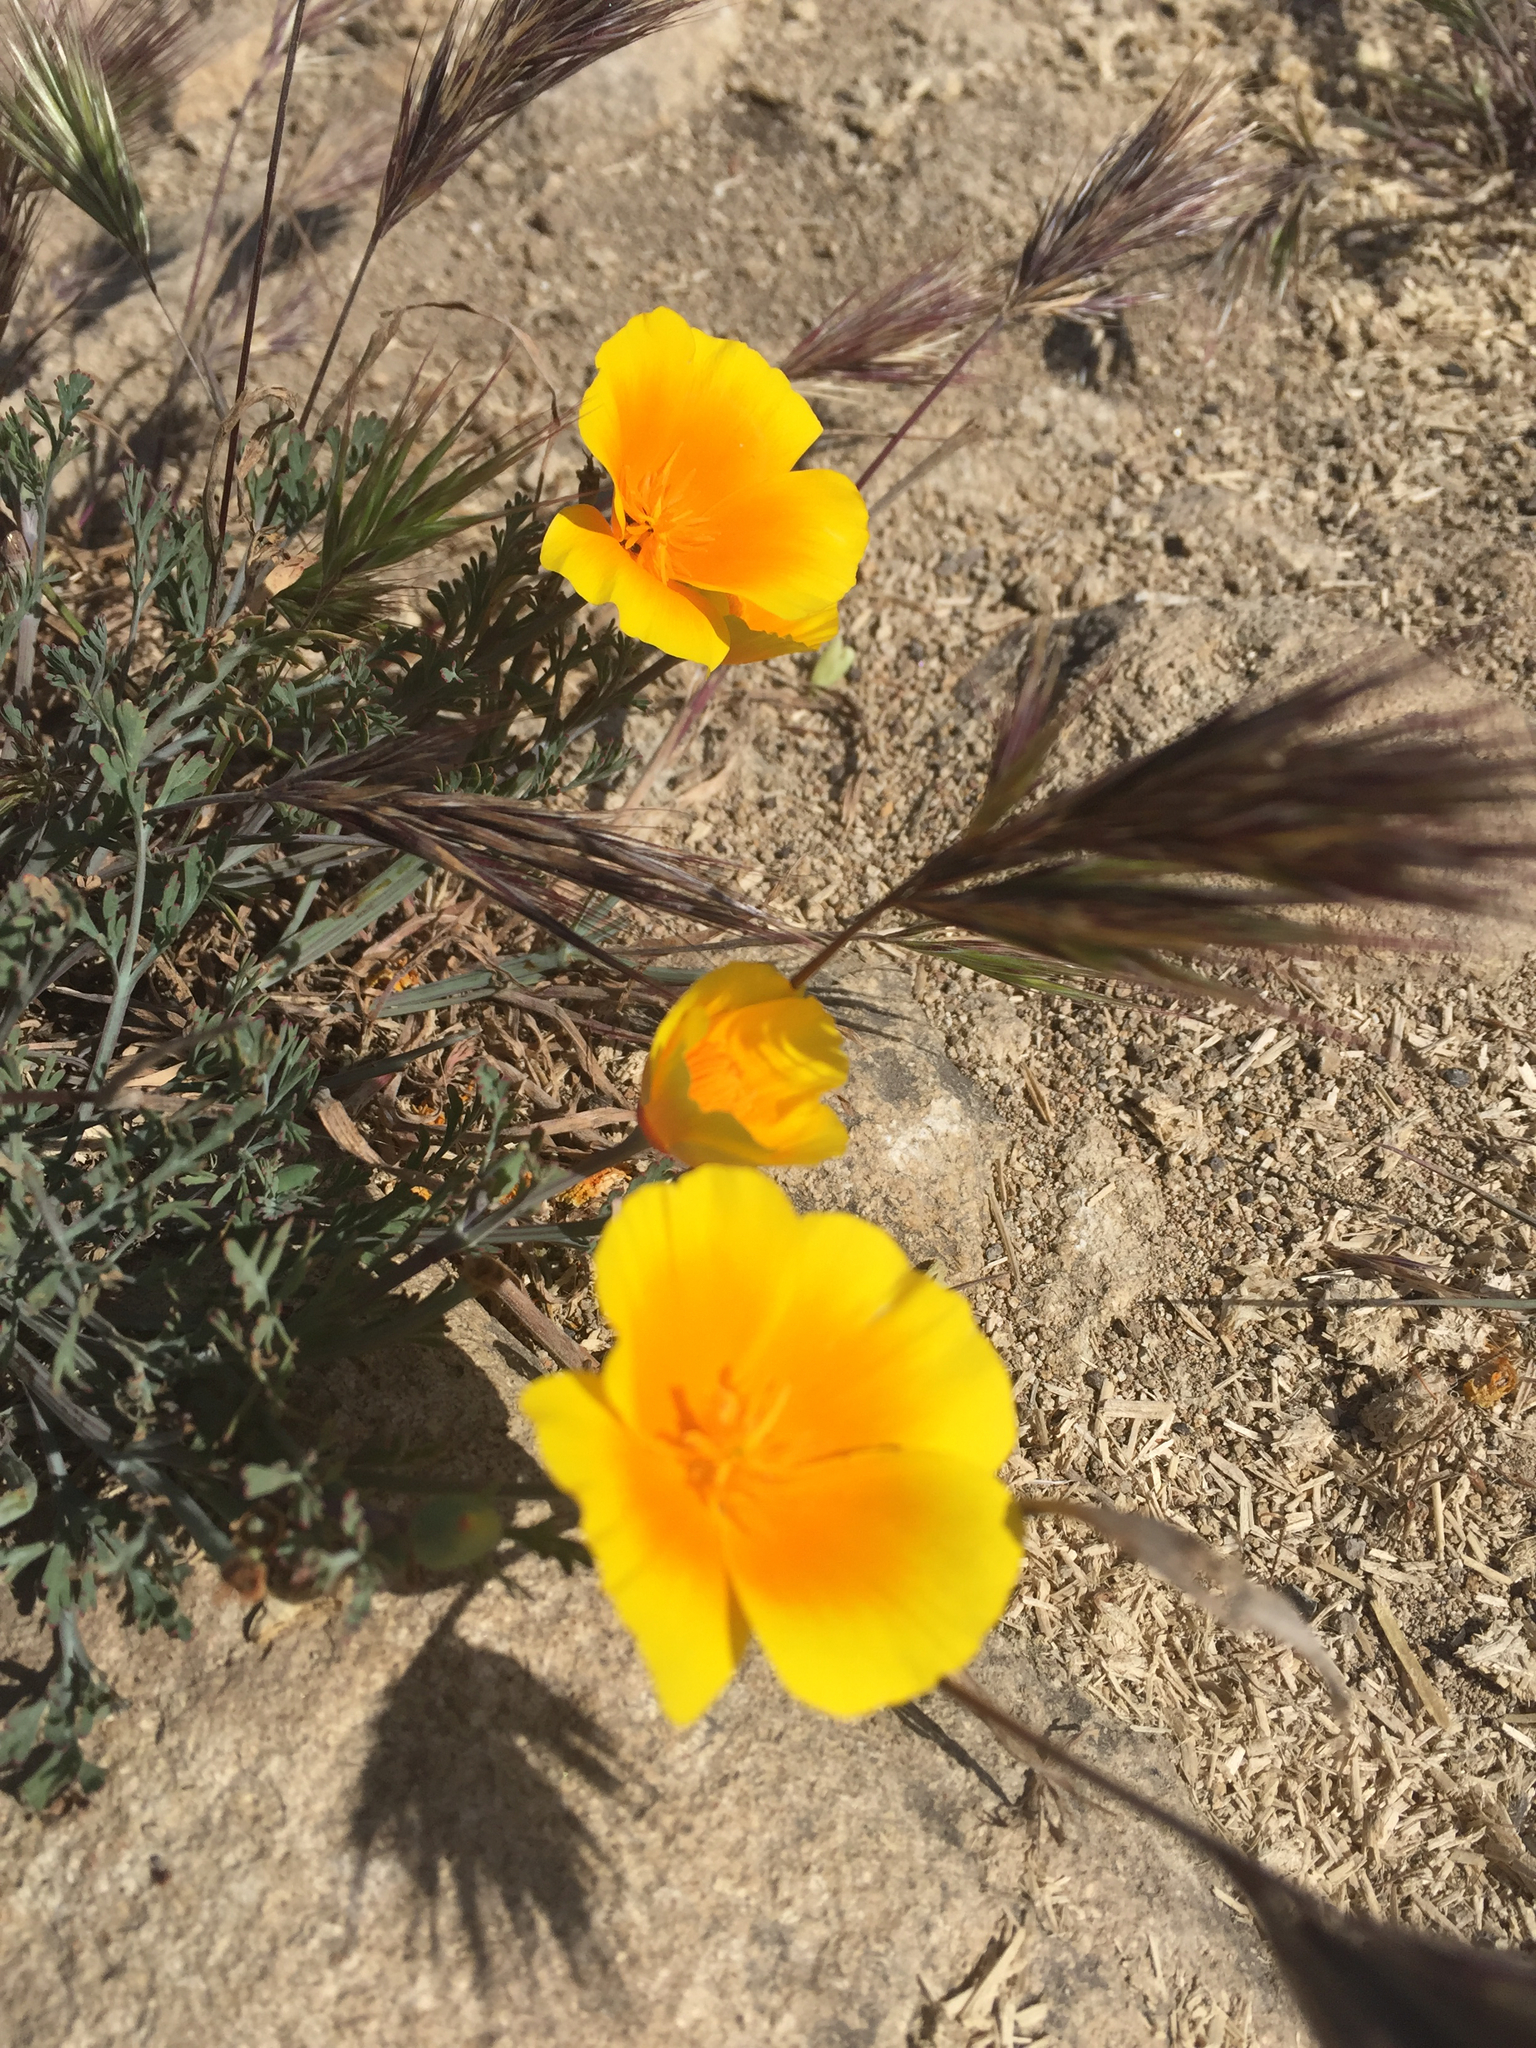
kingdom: Plantae
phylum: Tracheophyta
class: Magnoliopsida
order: Ranunculales
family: Papaveraceae
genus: Eschscholzia
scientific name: Eschscholzia californica
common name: California poppy
